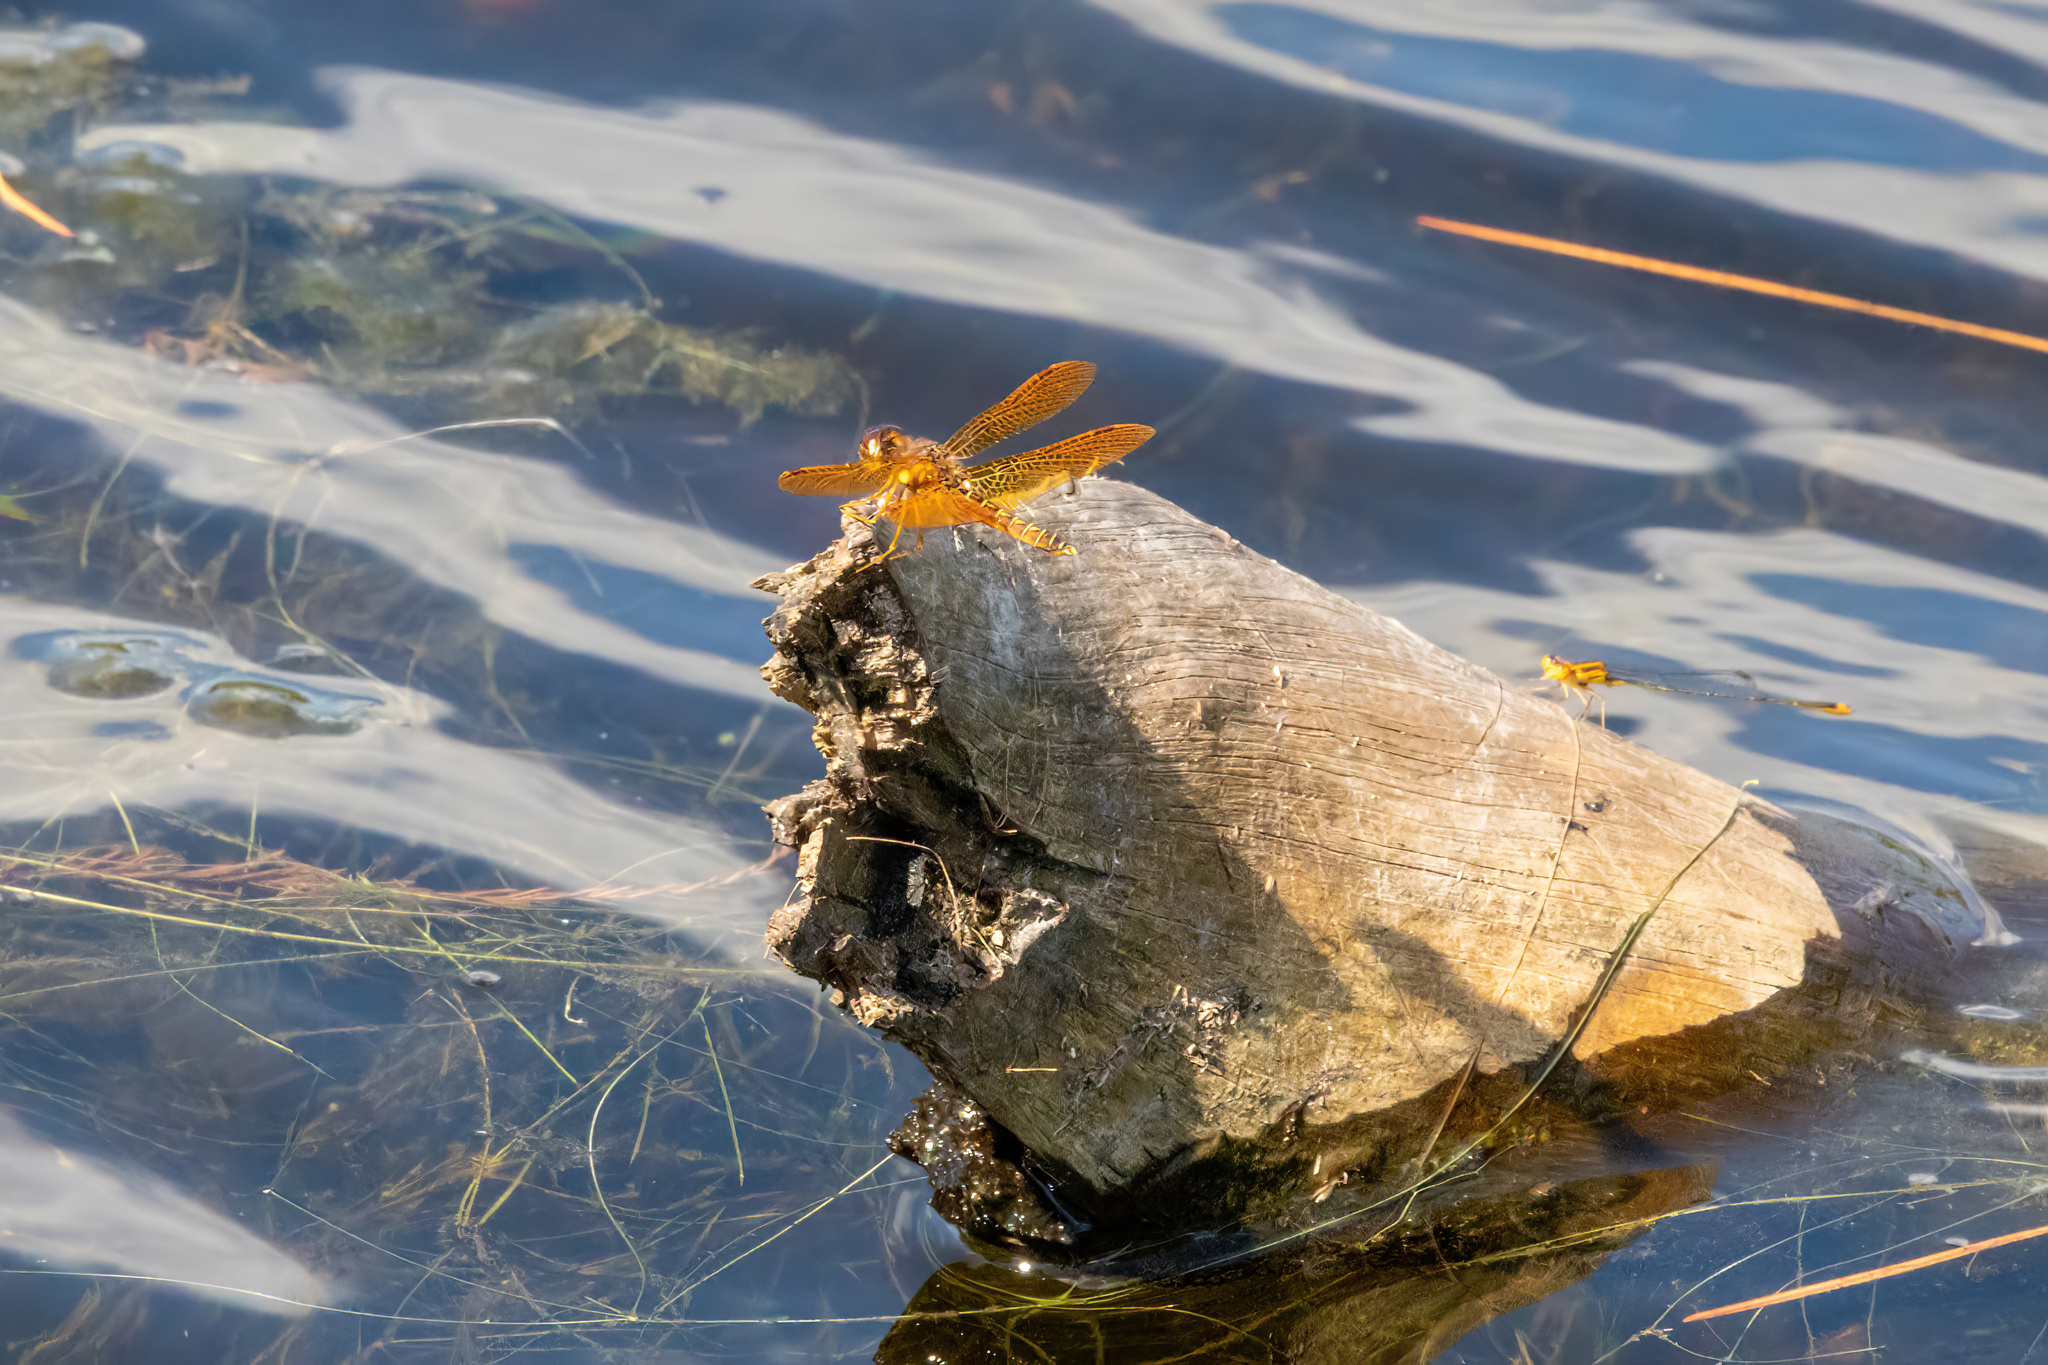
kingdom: Animalia
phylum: Arthropoda
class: Insecta
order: Odonata
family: Libellulidae
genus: Perithemis
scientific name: Perithemis tenera
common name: Eastern amberwing
